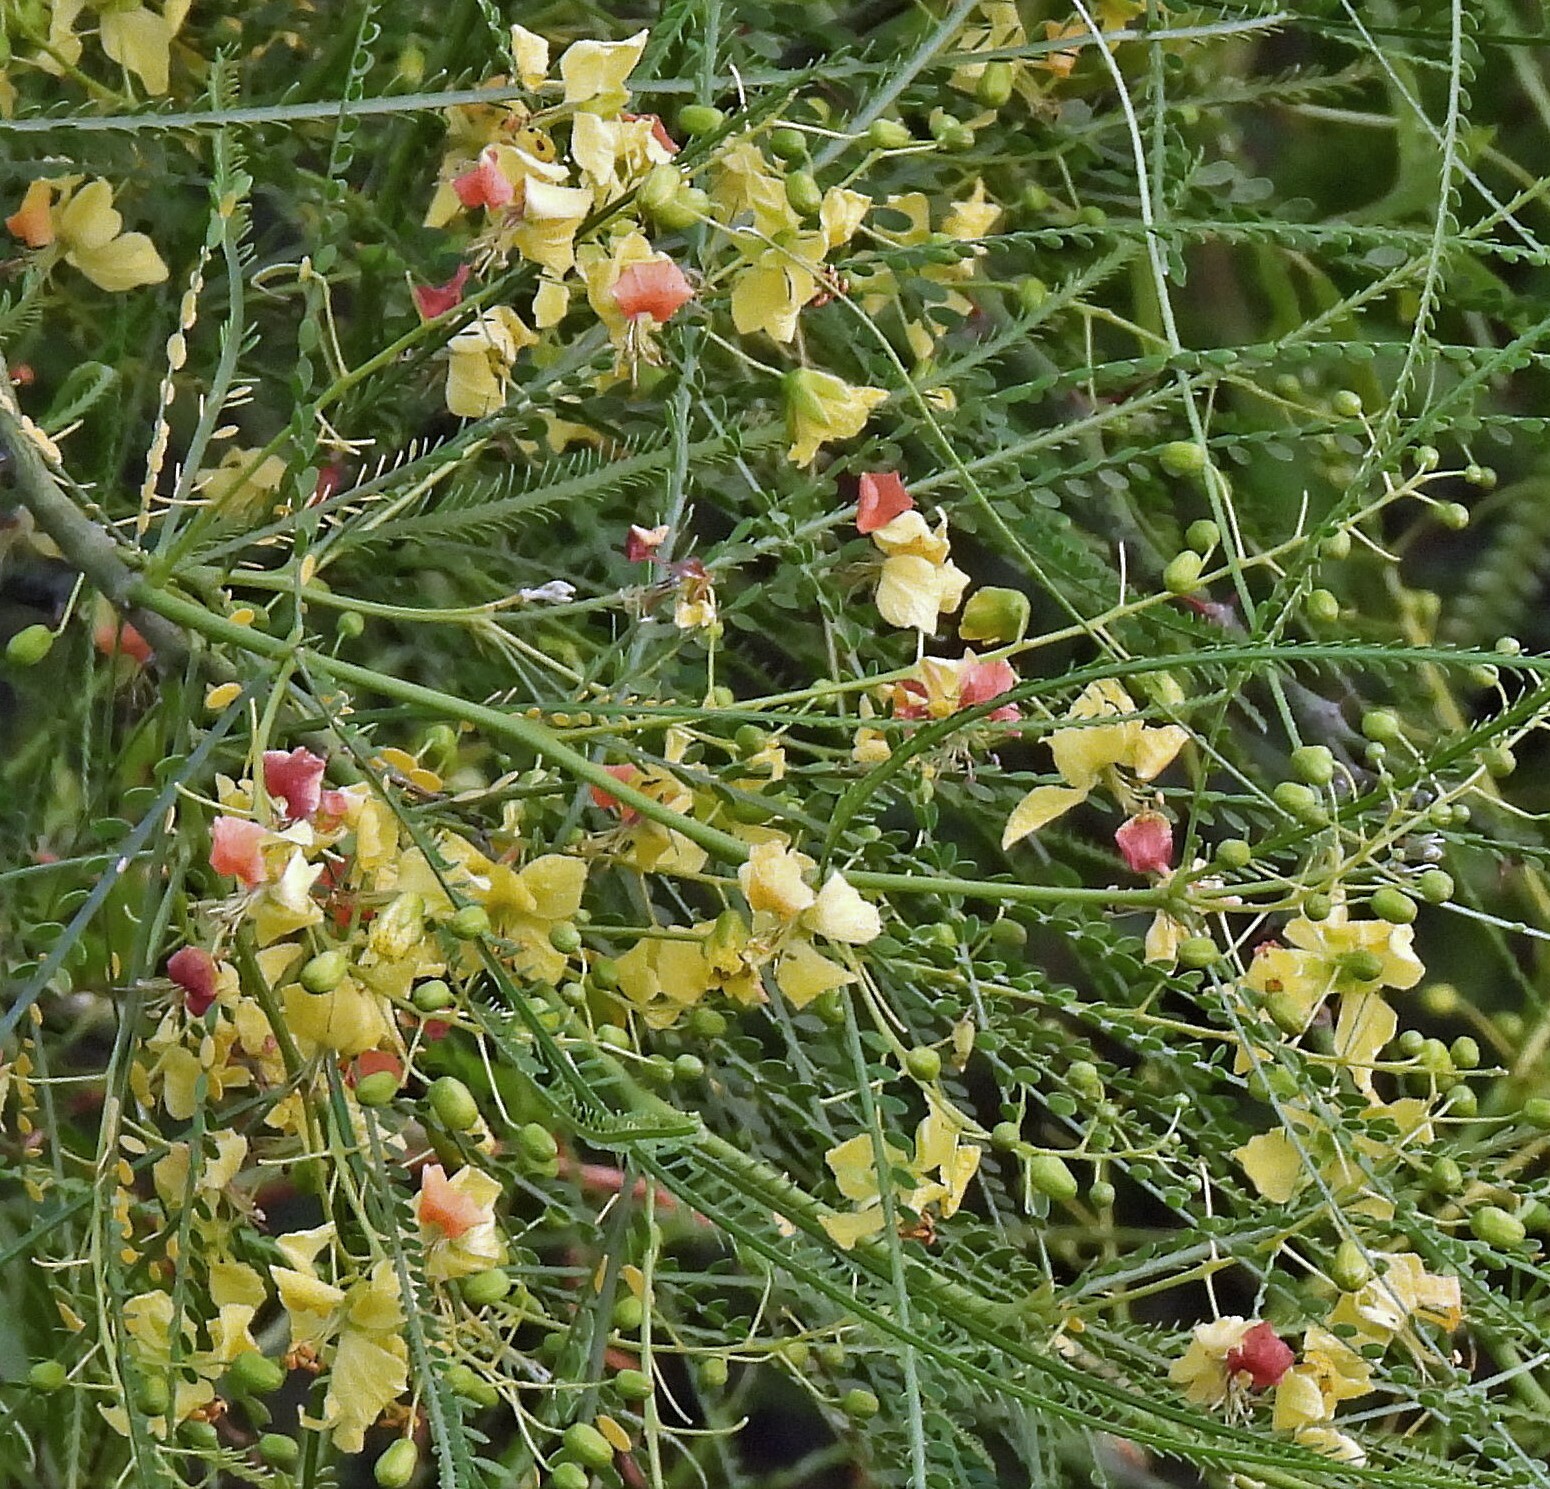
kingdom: Plantae
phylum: Tracheophyta
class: Magnoliopsida
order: Fabales
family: Fabaceae
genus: Parkinsonia
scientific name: Parkinsonia aculeata
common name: Jerusalem thorn
